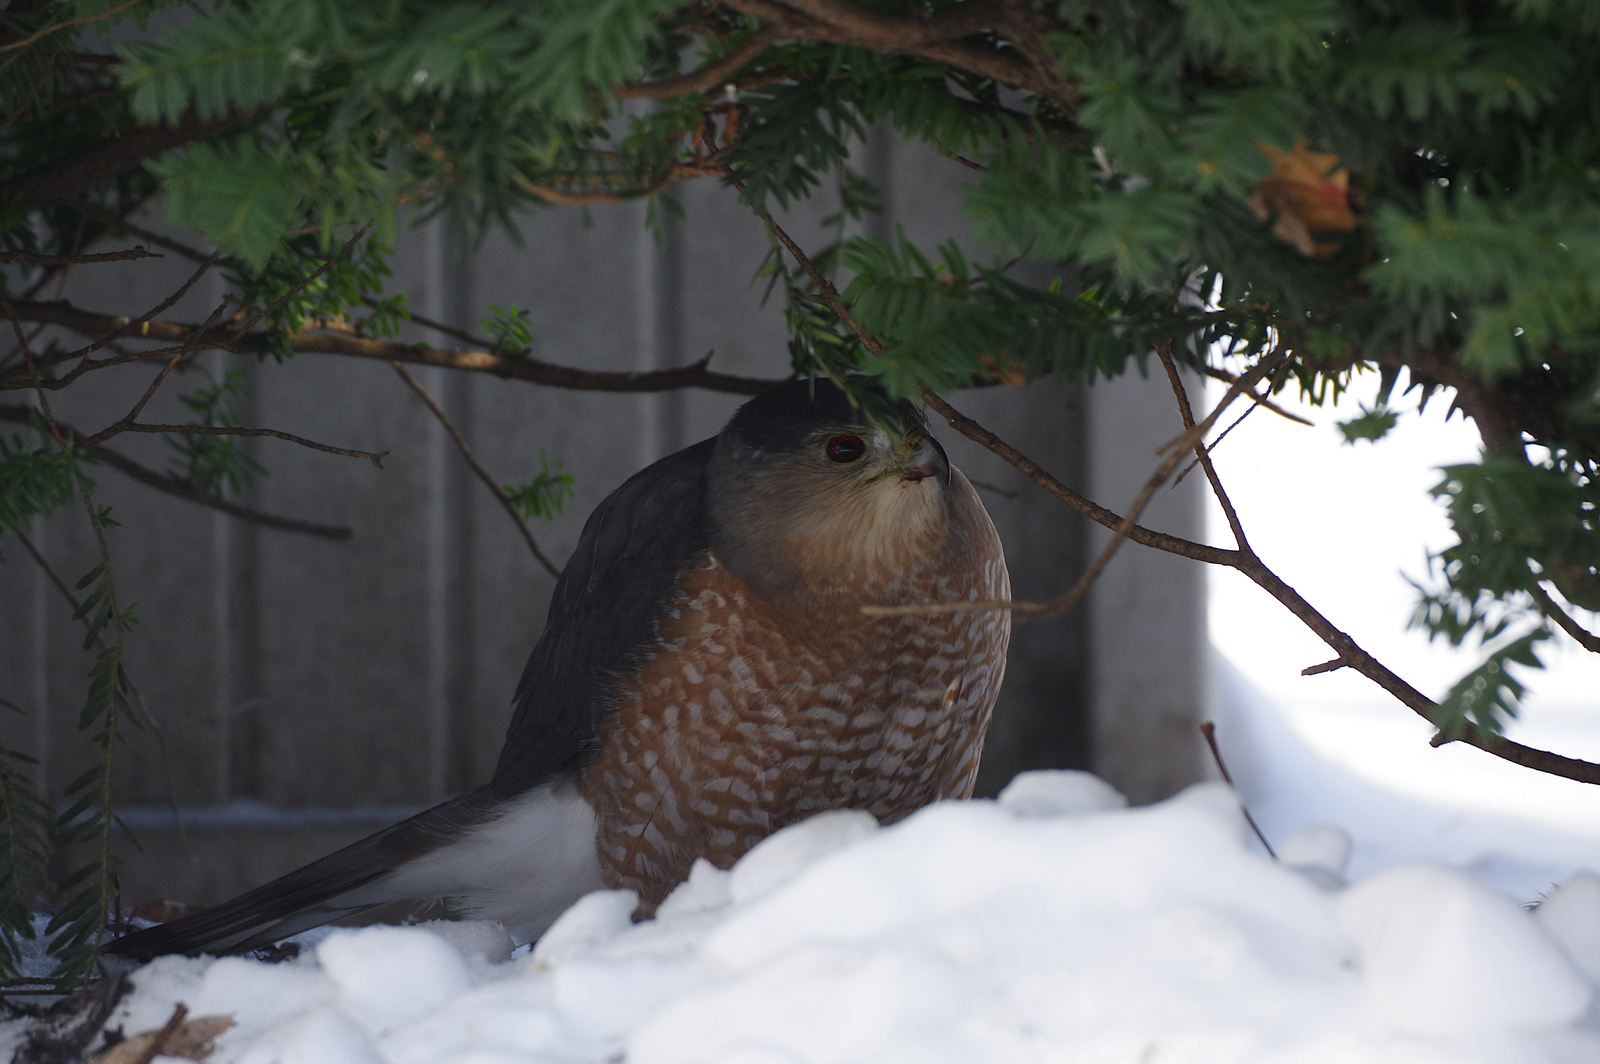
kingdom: Animalia
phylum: Chordata
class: Aves
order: Accipitriformes
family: Accipitridae
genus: Accipiter
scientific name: Accipiter cooperii
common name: Cooper's hawk
